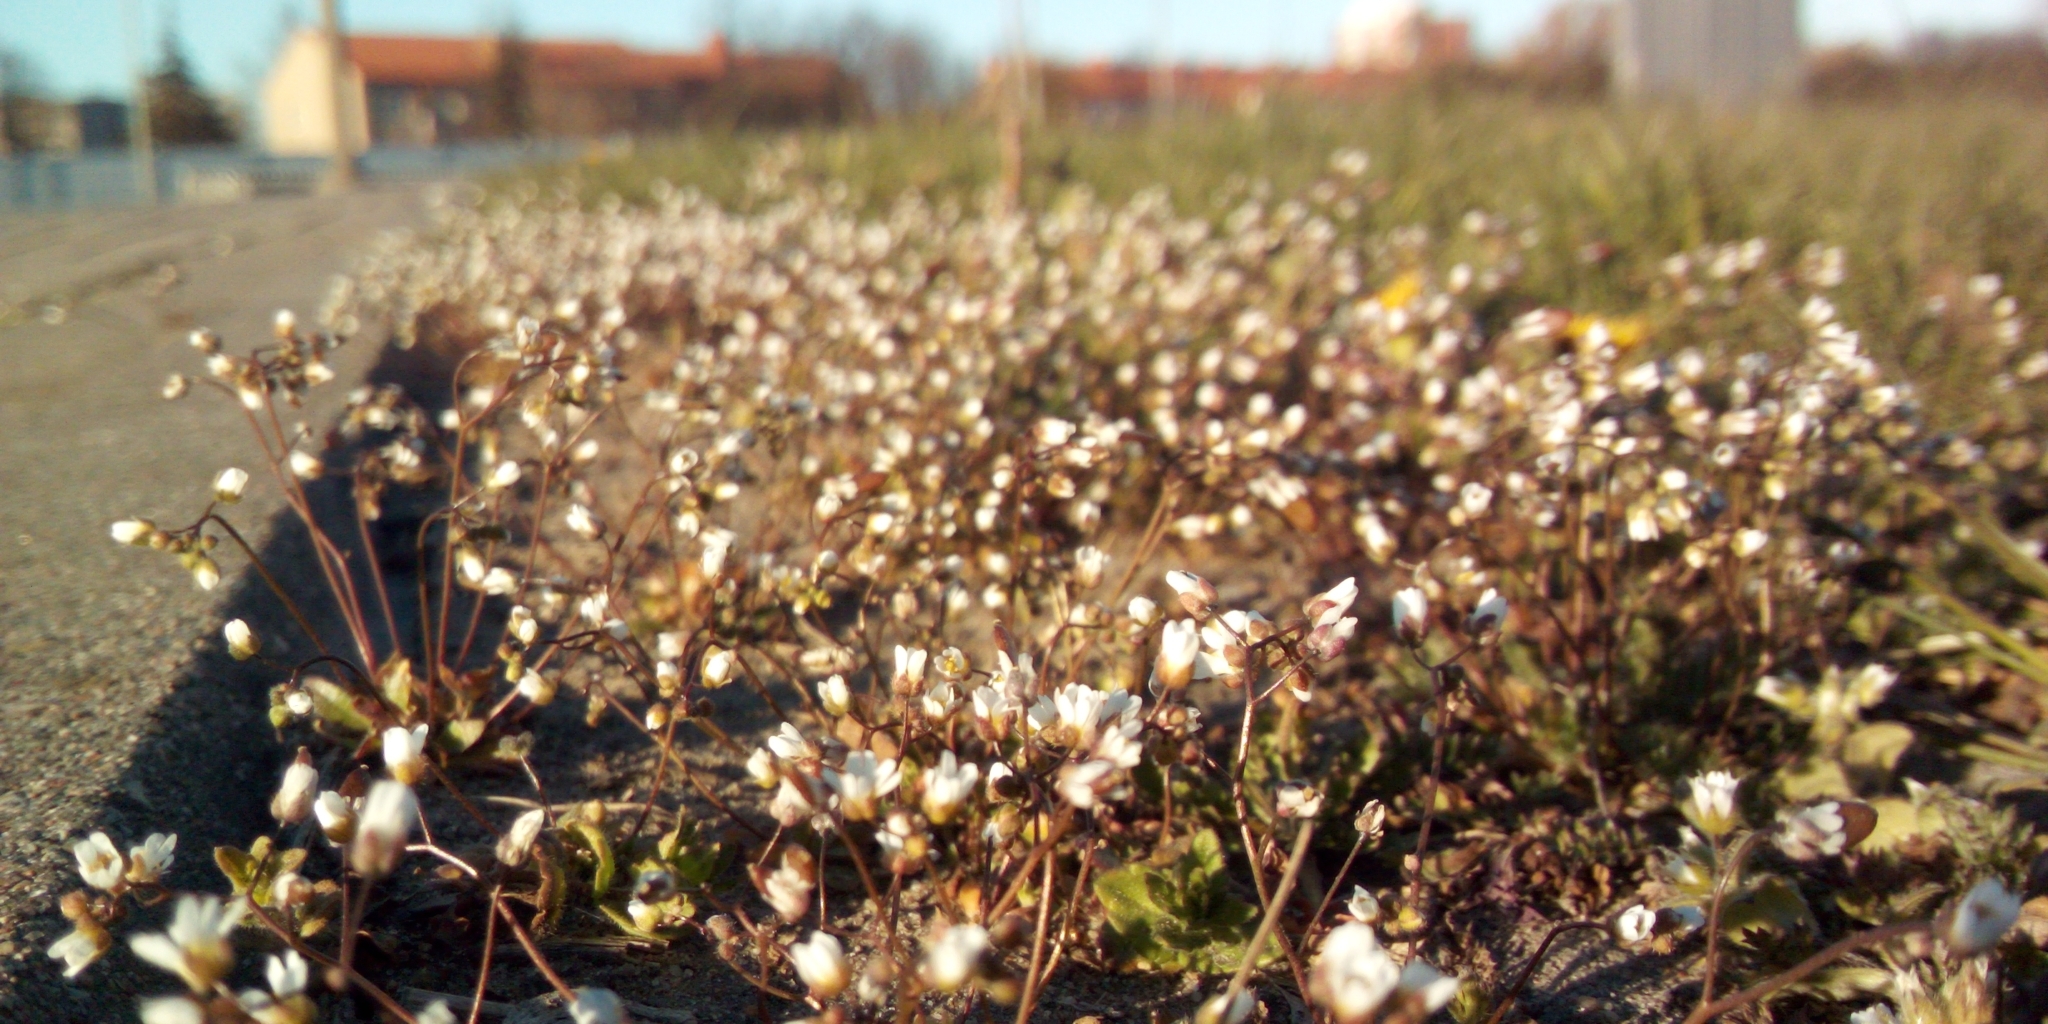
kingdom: Plantae
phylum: Tracheophyta
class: Magnoliopsida
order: Brassicales
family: Brassicaceae
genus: Draba
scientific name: Draba verna
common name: Spring draba
